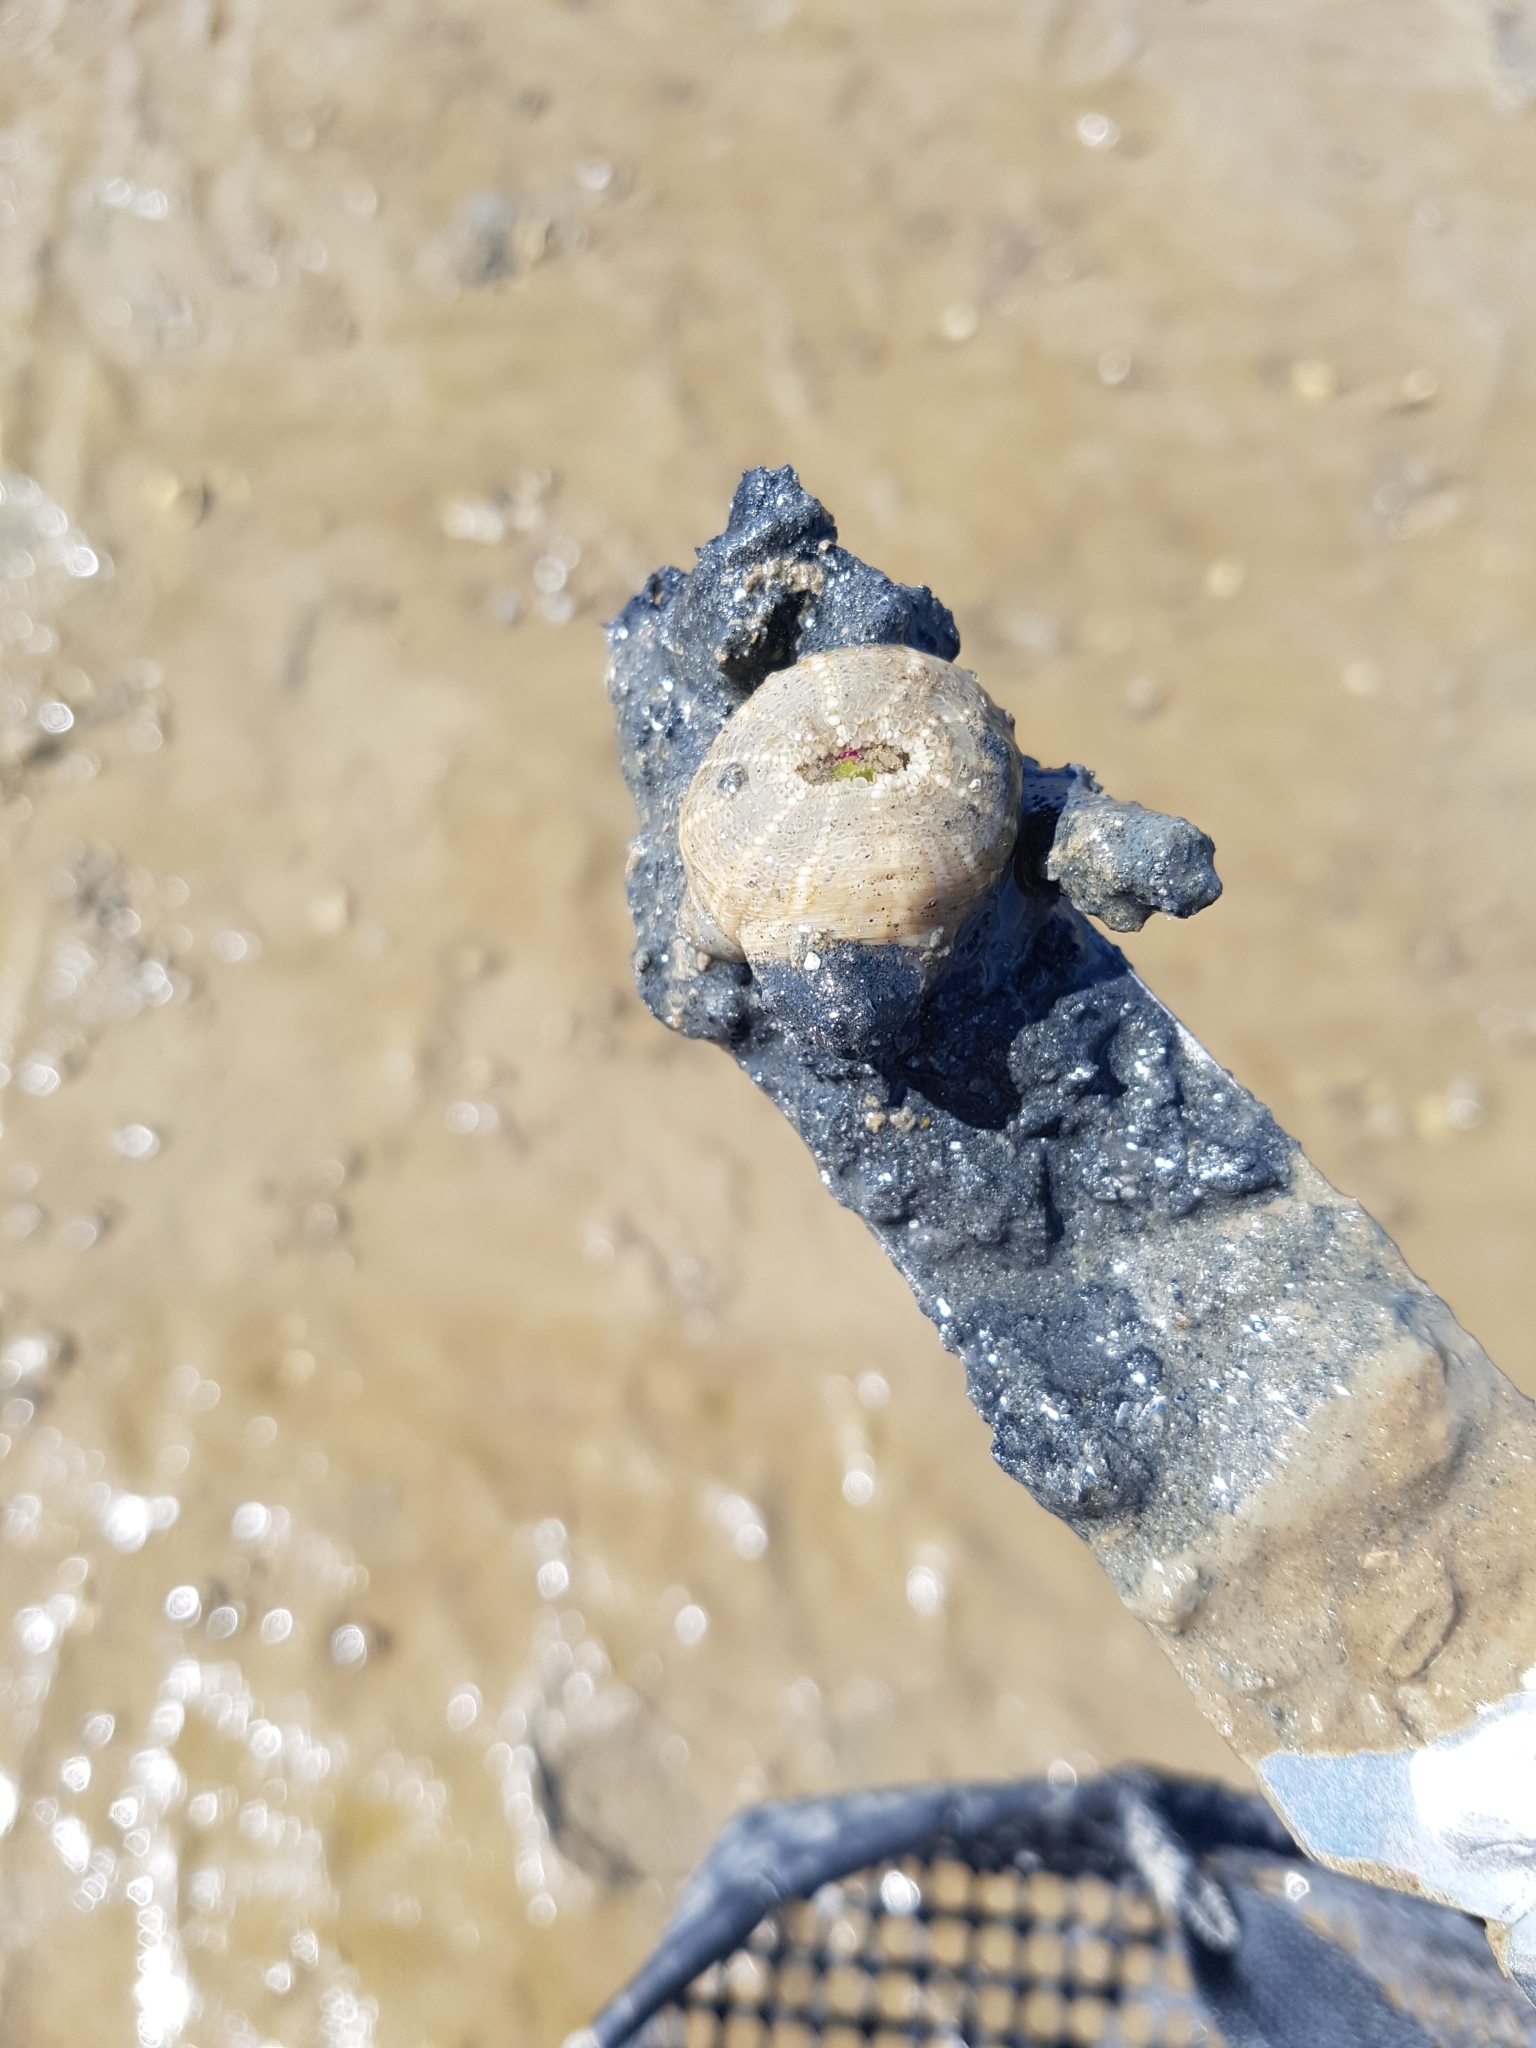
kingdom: Animalia
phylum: Cnidaria
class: Anthozoa
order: Actiniaria
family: Actiniidae
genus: Bunodactis
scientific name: Bunodactis verrucosa
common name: Gem anemone
